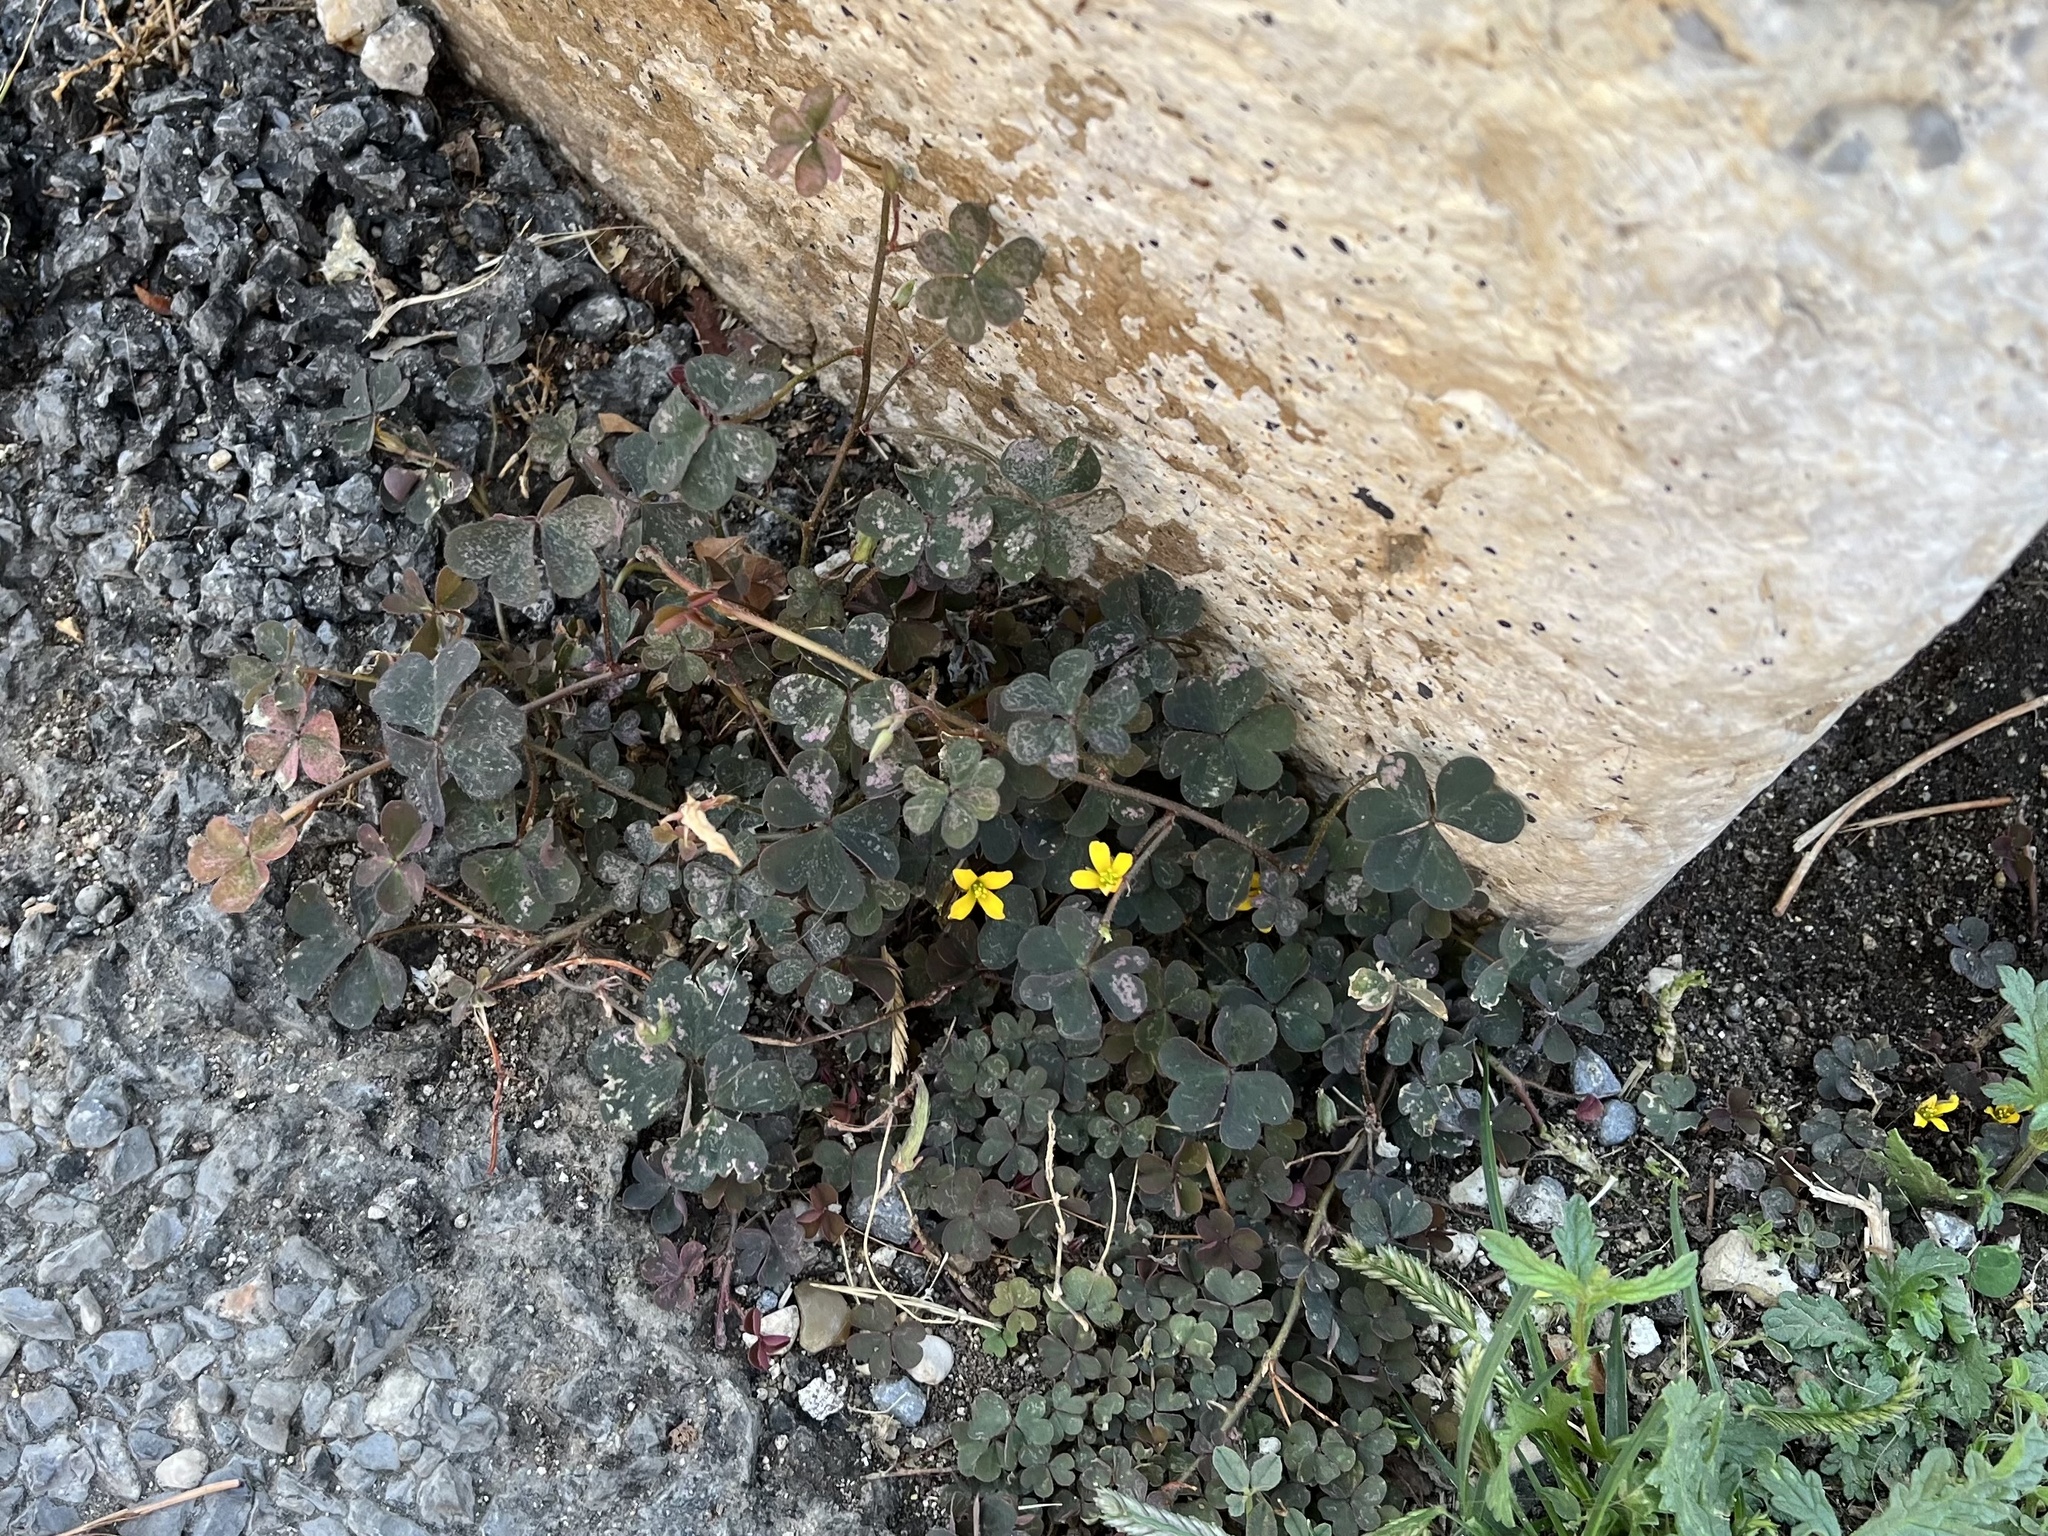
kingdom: Plantae
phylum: Tracheophyta
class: Magnoliopsida
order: Oxalidales
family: Oxalidaceae
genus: Oxalis
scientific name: Oxalis corniculata
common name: Procumbent yellow-sorrel
